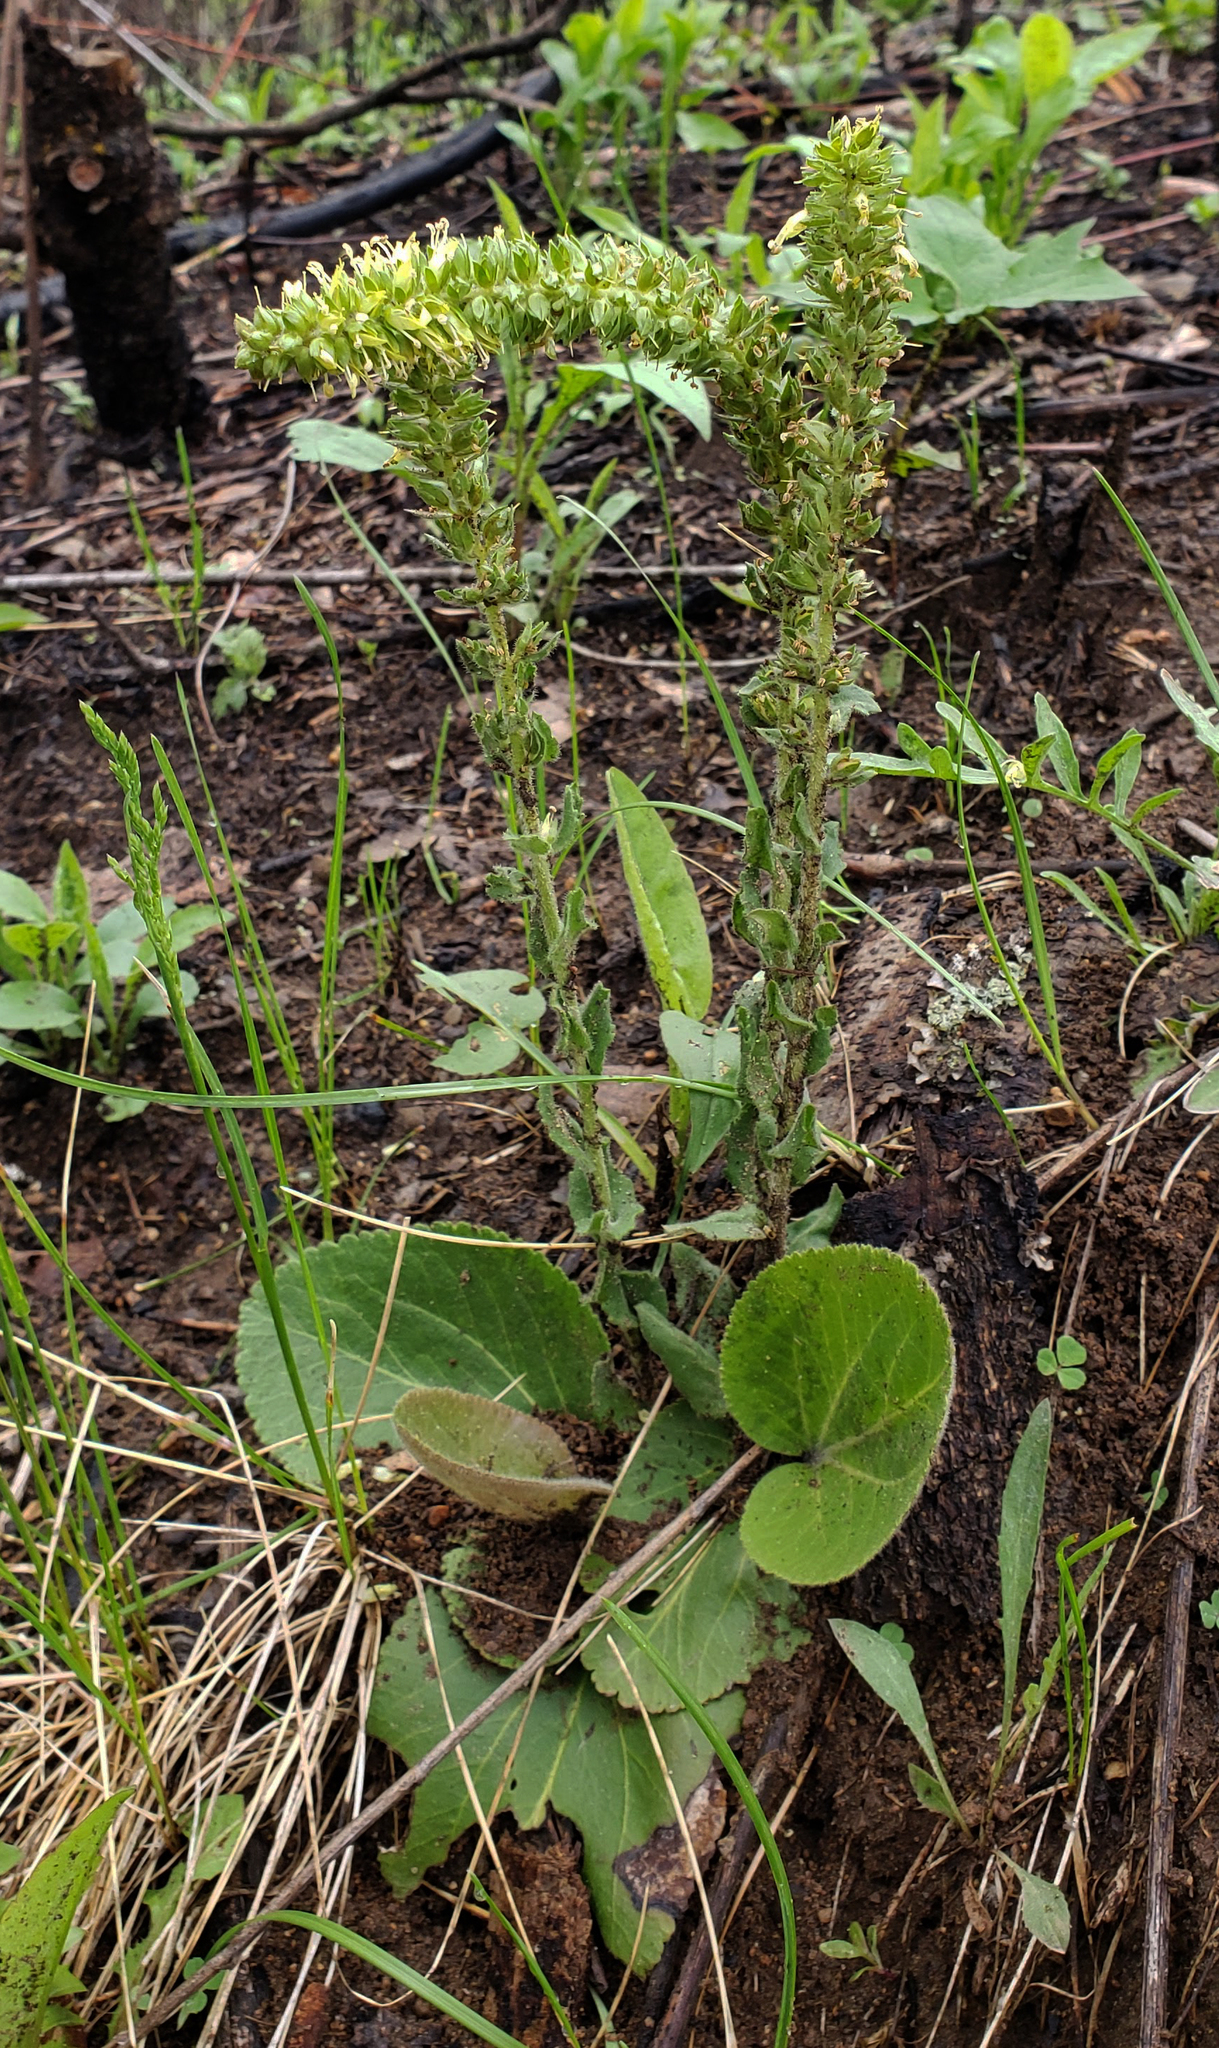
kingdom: Plantae
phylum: Tracheophyta
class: Magnoliopsida
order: Lamiales
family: Plantaginaceae
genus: Synthyris
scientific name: Synthyris bullii
